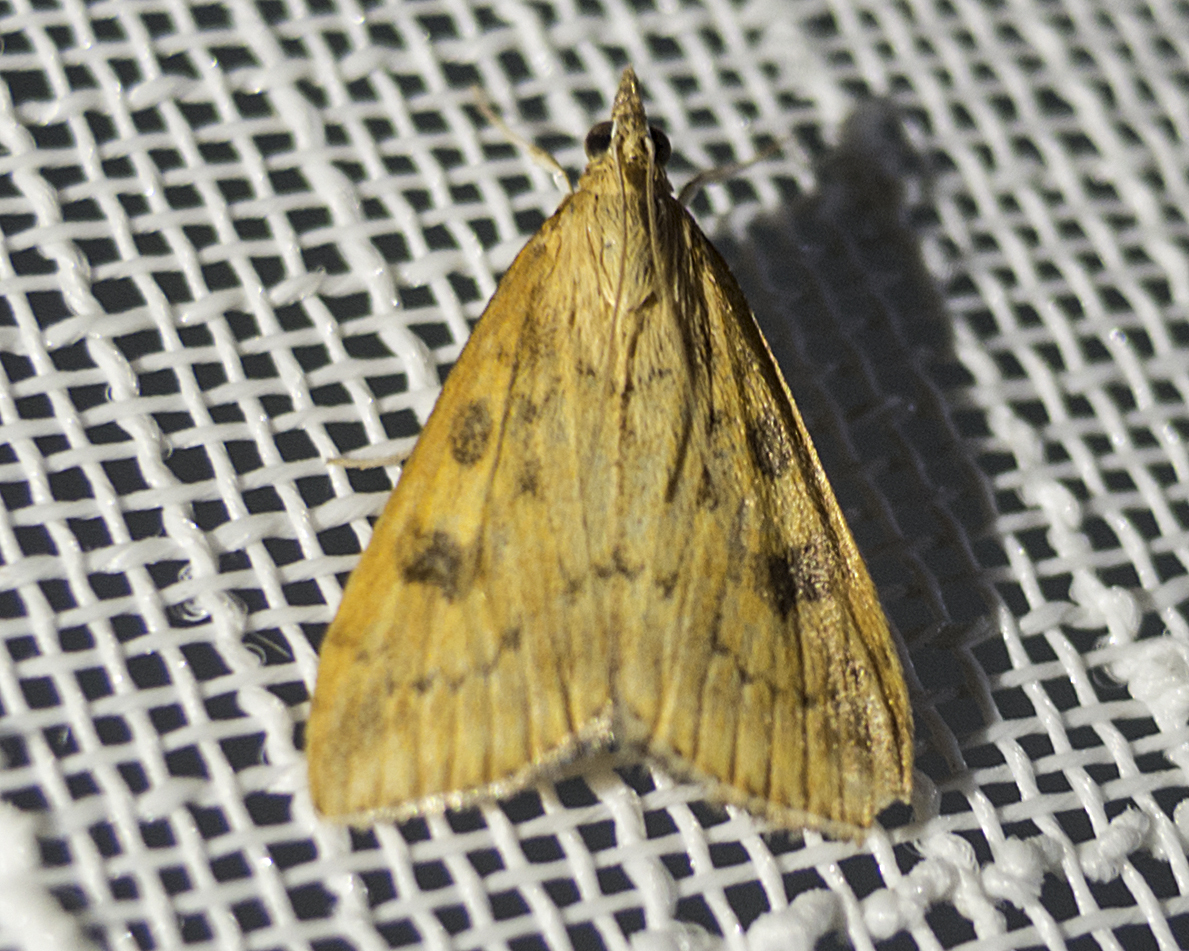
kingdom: Animalia
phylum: Arthropoda
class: Insecta
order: Lepidoptera
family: Crambidae
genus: Udea
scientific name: Udea ferrugalis
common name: Rusty dot
